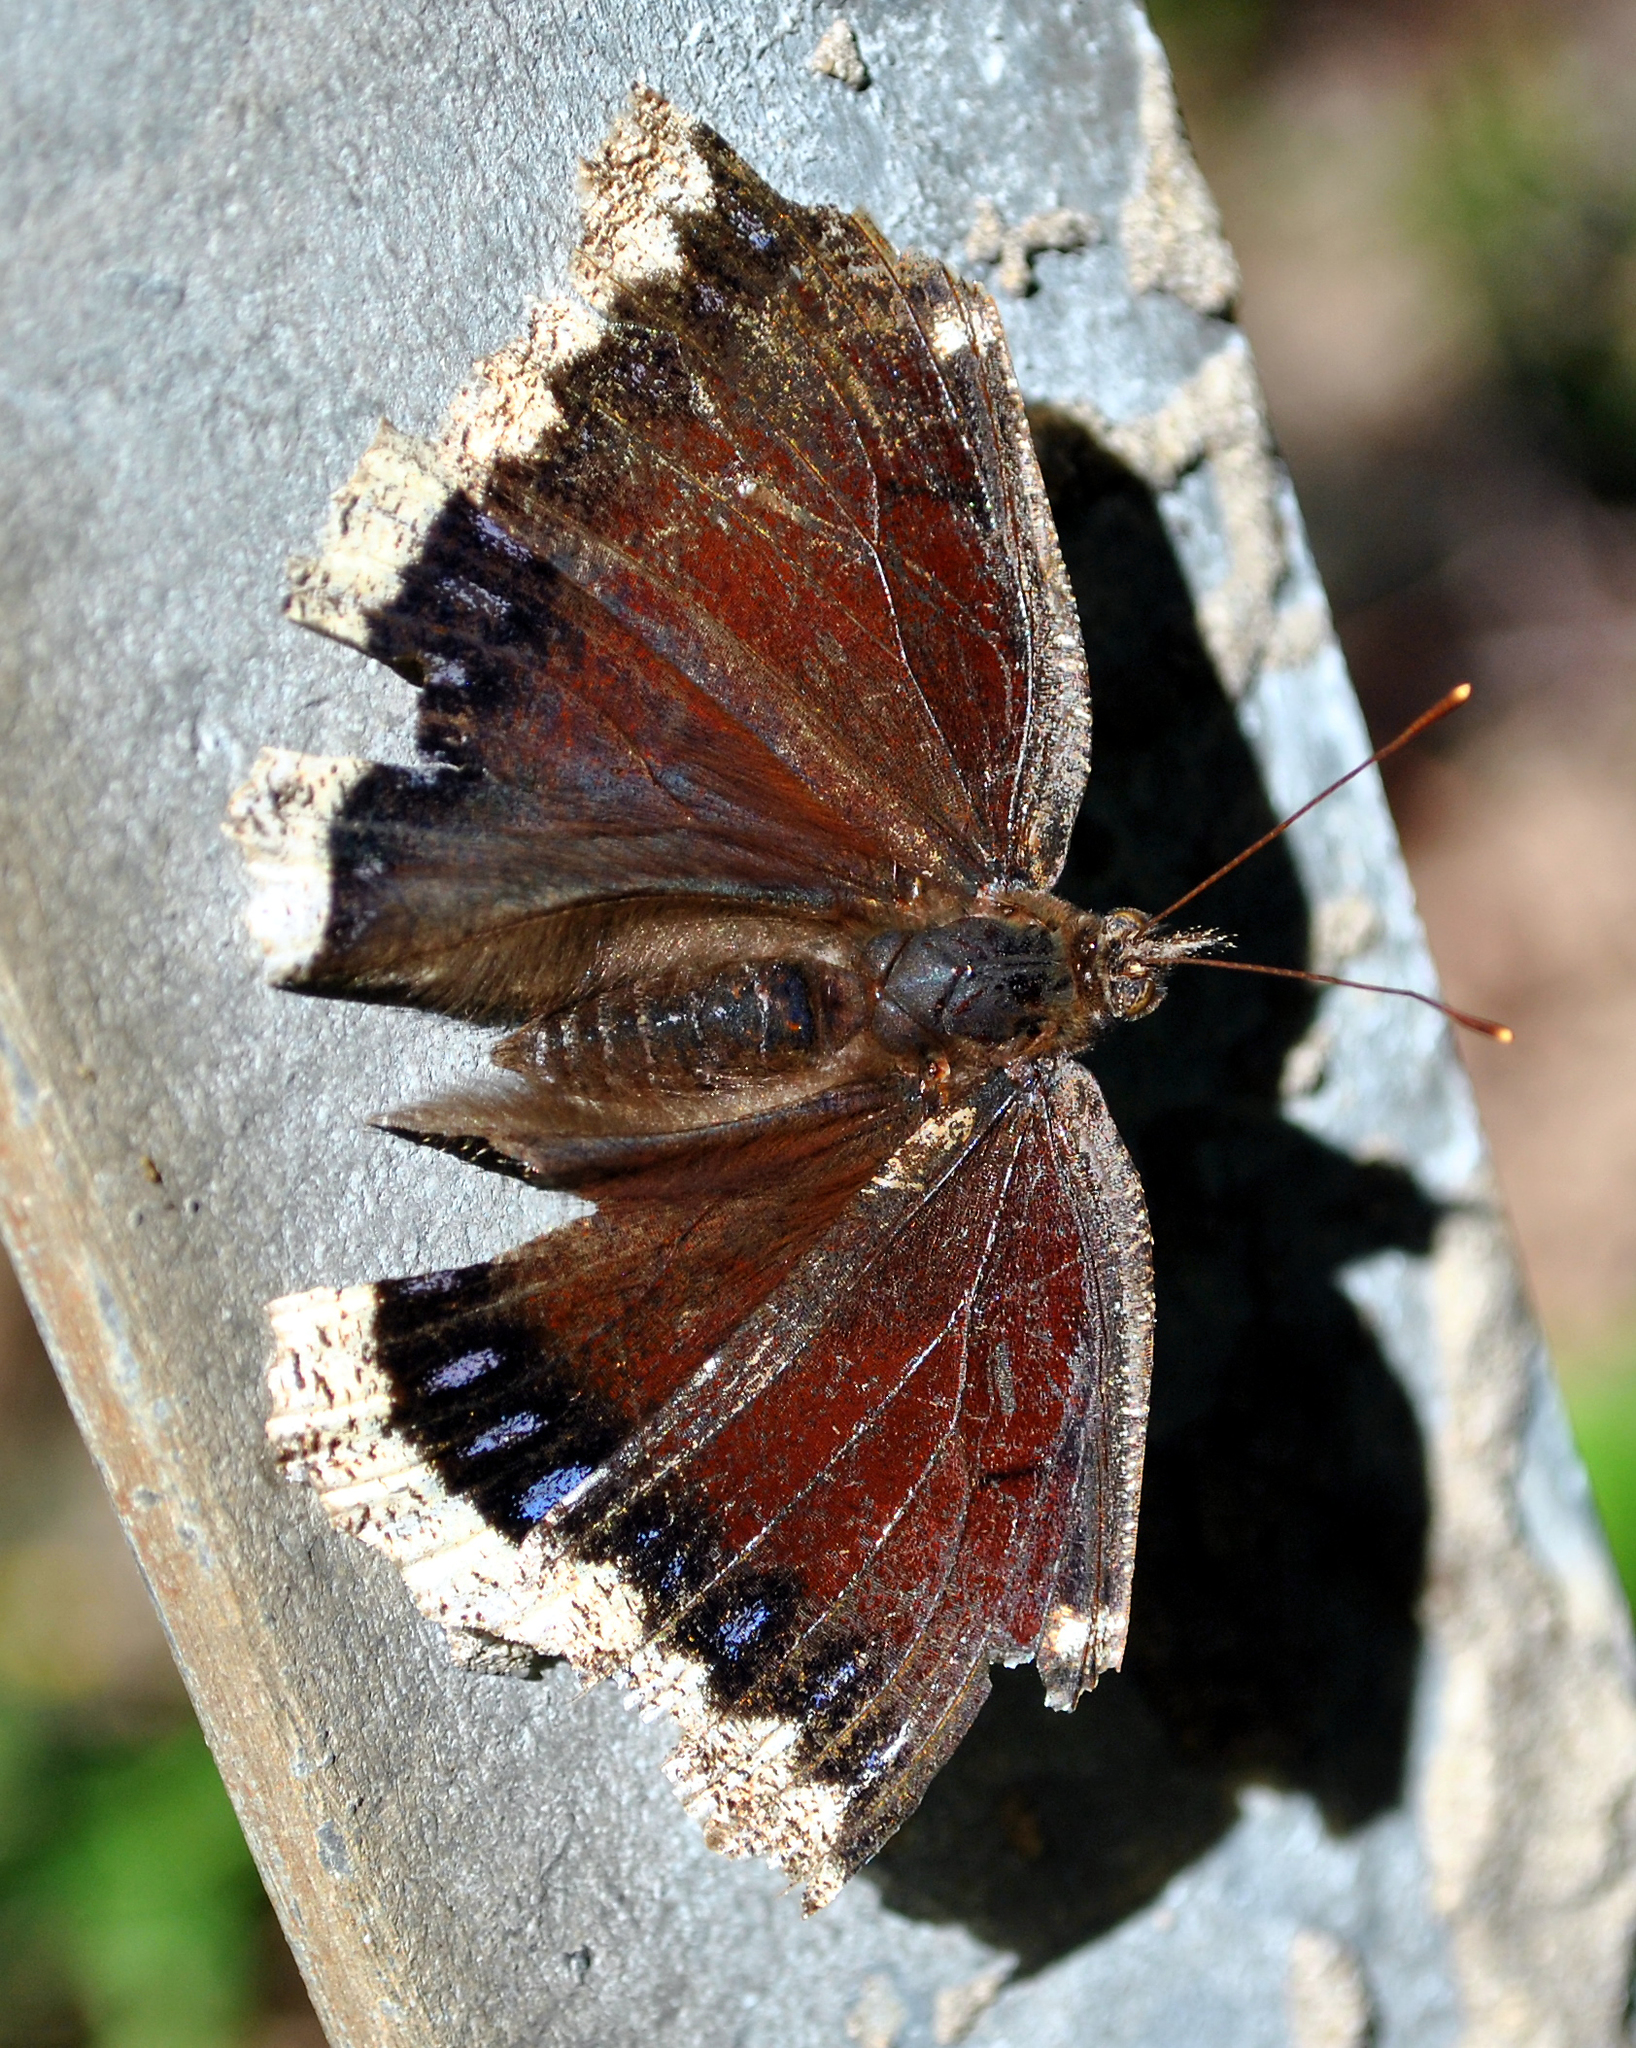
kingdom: Animalia
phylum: Arthropoda
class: Insecta
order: Lepidoptera
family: Nymphalidae
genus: Nymphalis
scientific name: Nymphalis antiopa
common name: Camberwell beauty
